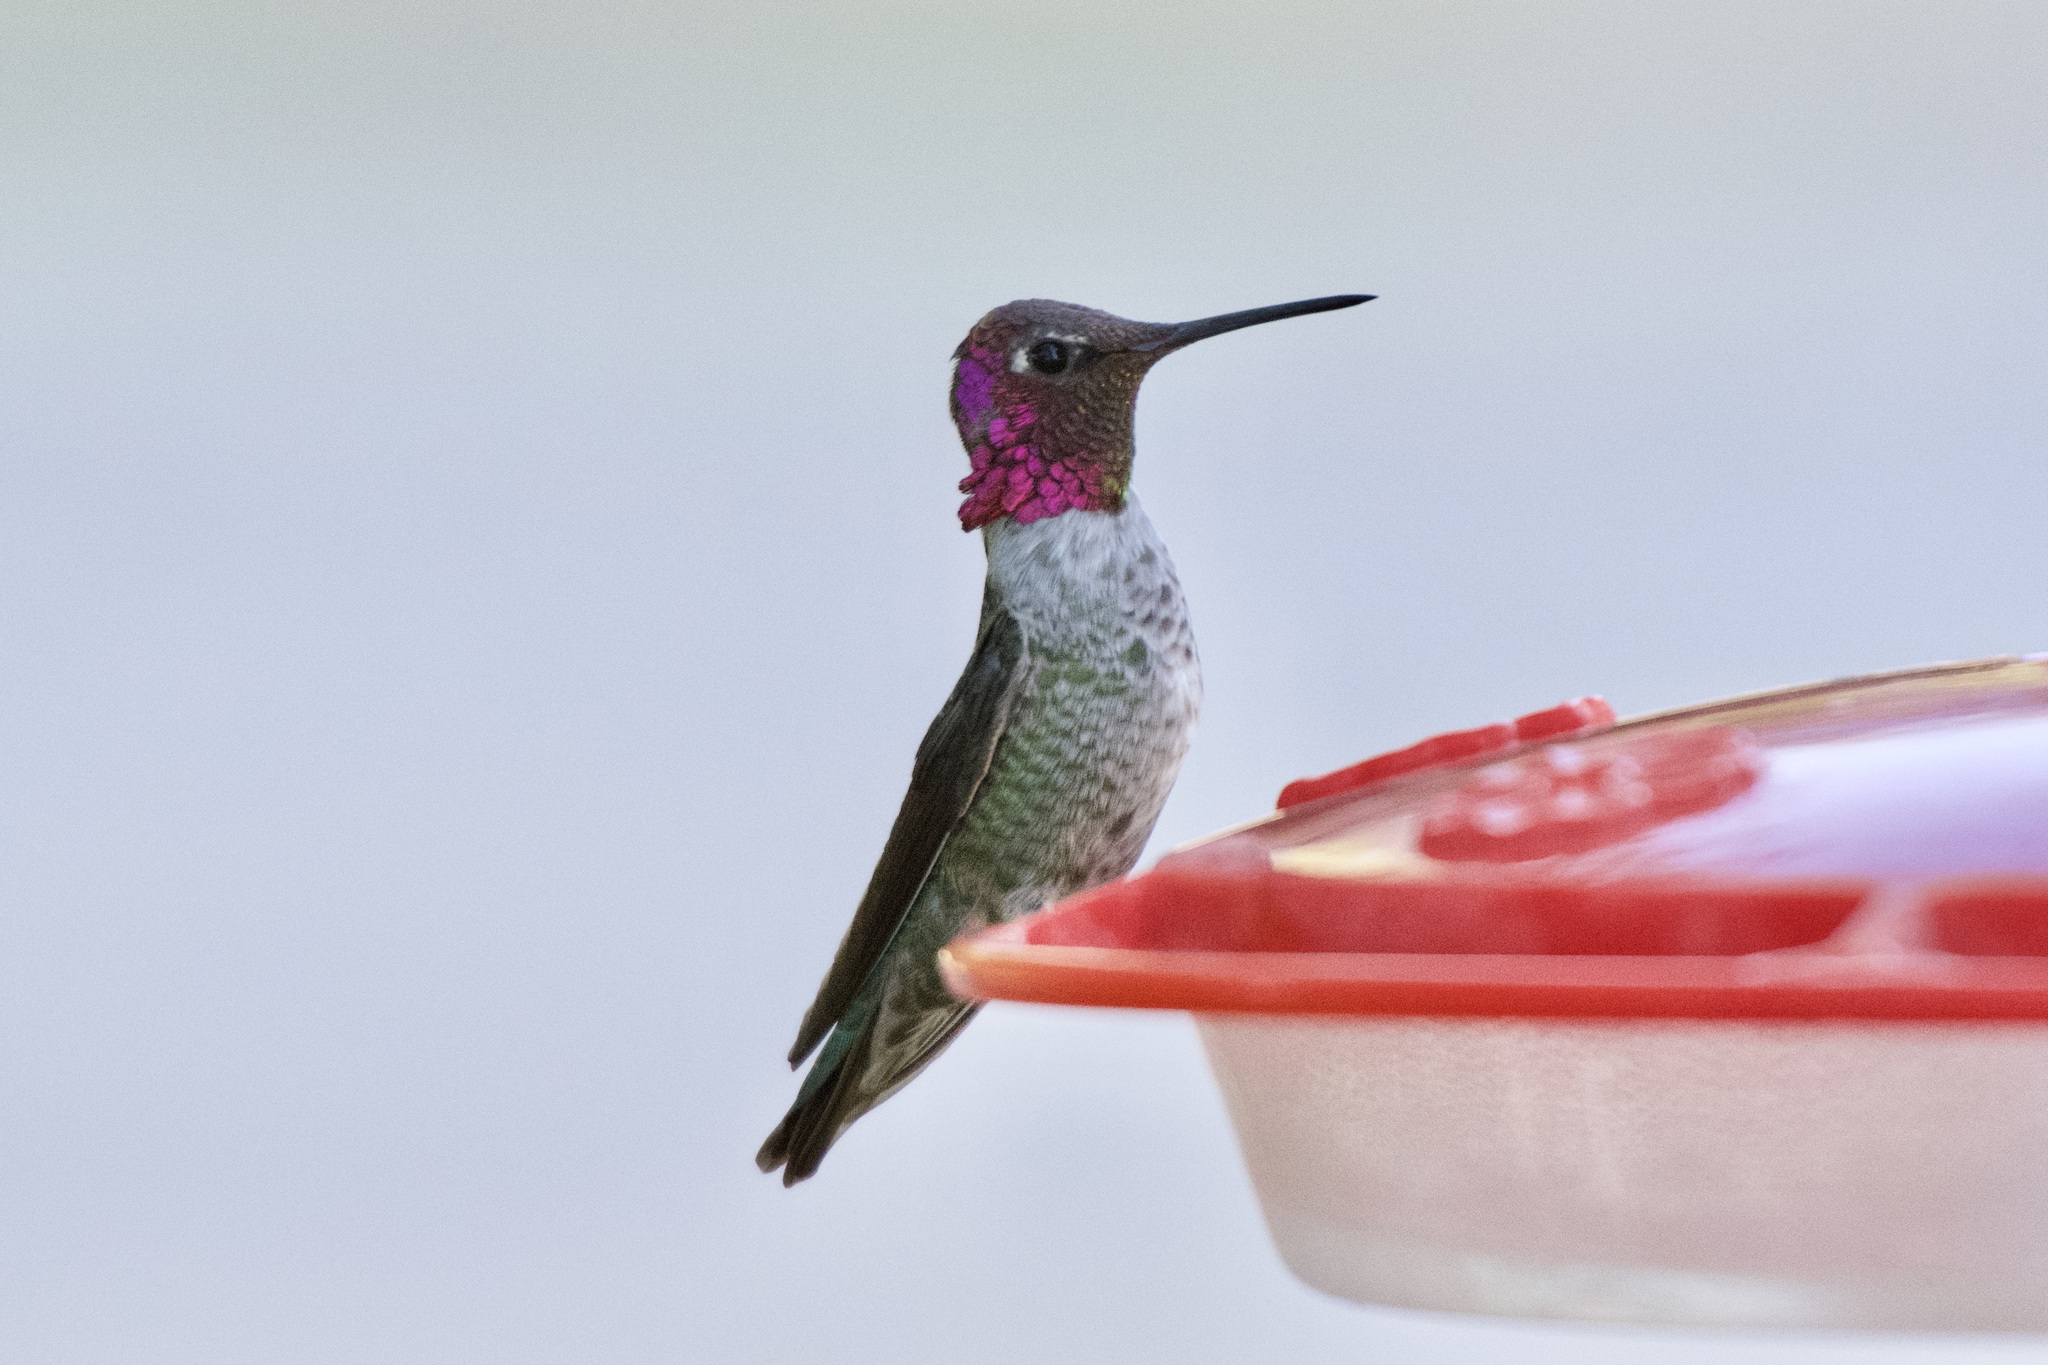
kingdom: Animalia
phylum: Chordata
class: Aves
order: Apodiformes
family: Trochilidae
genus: Calypte
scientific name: Calypte anna
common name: Anna's hummingbird
